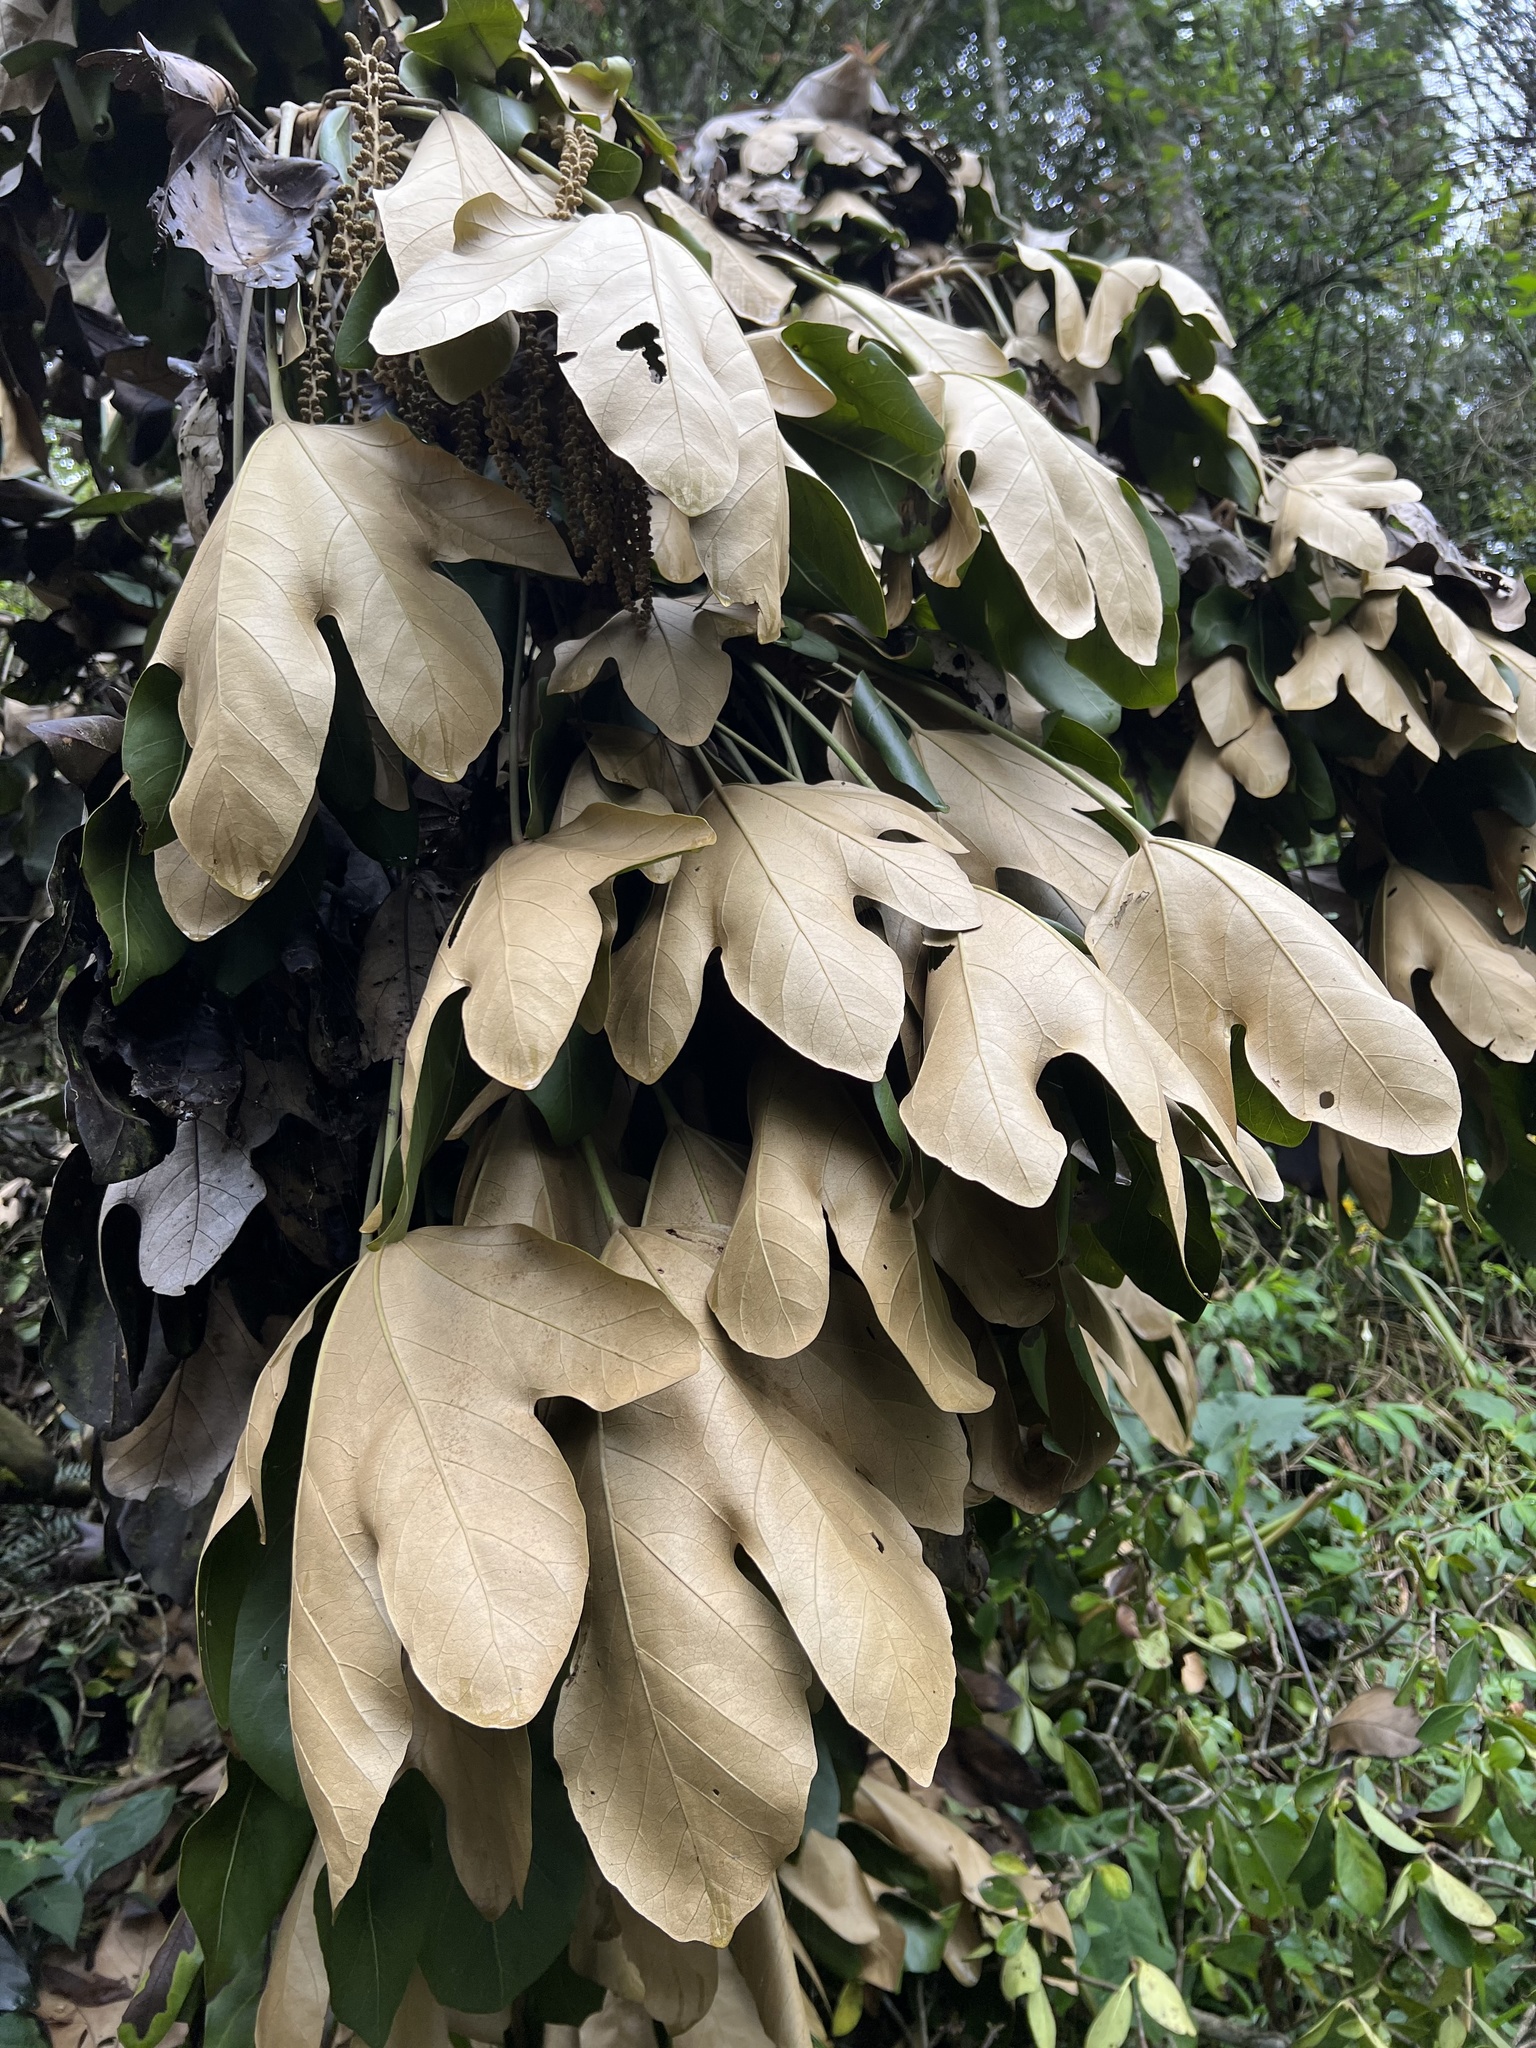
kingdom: Plantae
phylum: Tracheophyta
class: Magnoliopsida
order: Apiales
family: Araliaceae
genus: Oreopanax
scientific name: Oreopanax obtusilobus
